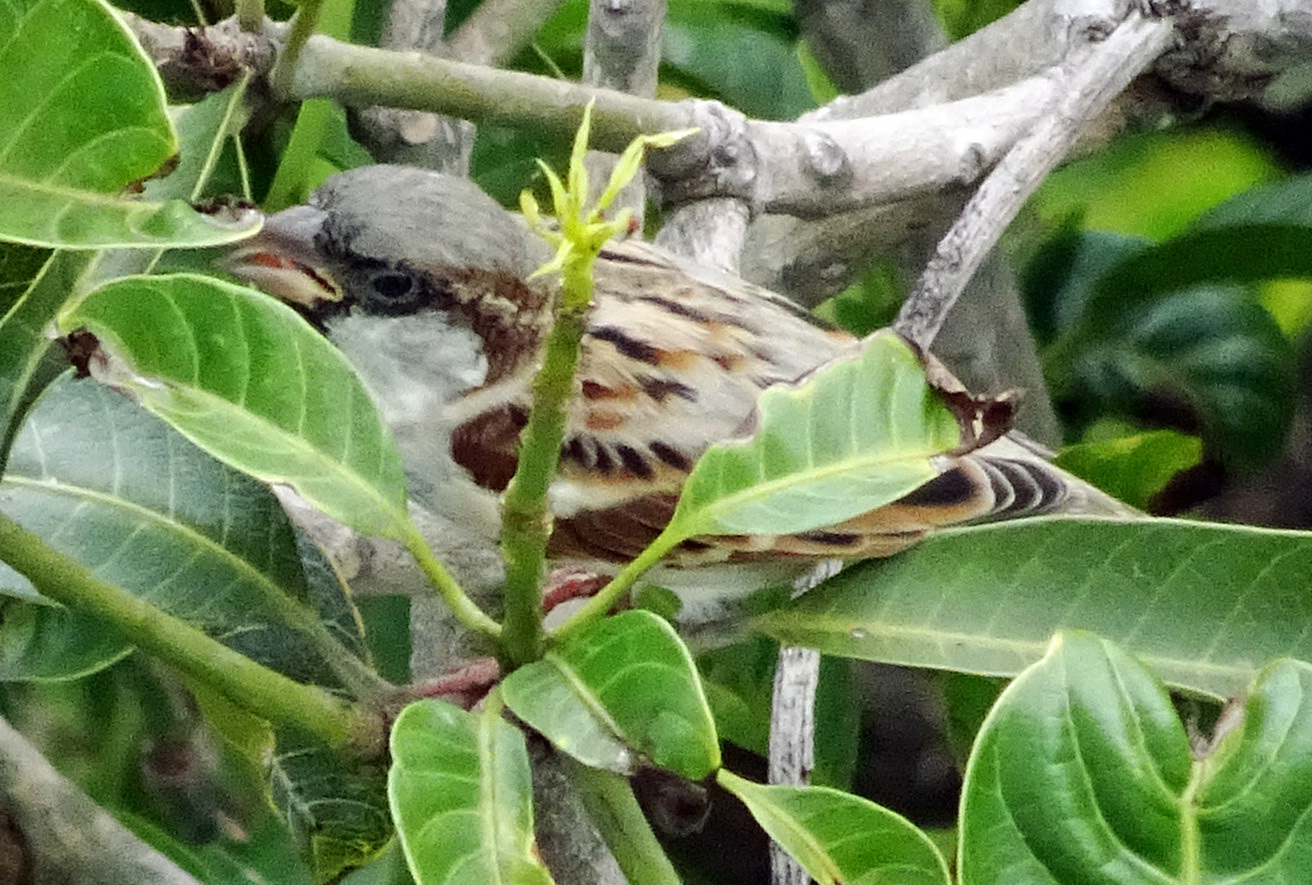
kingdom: Animalia
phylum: Chordata
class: Aves
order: Passeriformes
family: Passeridae
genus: Passer
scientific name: Passer domesticus
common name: House sparrow
